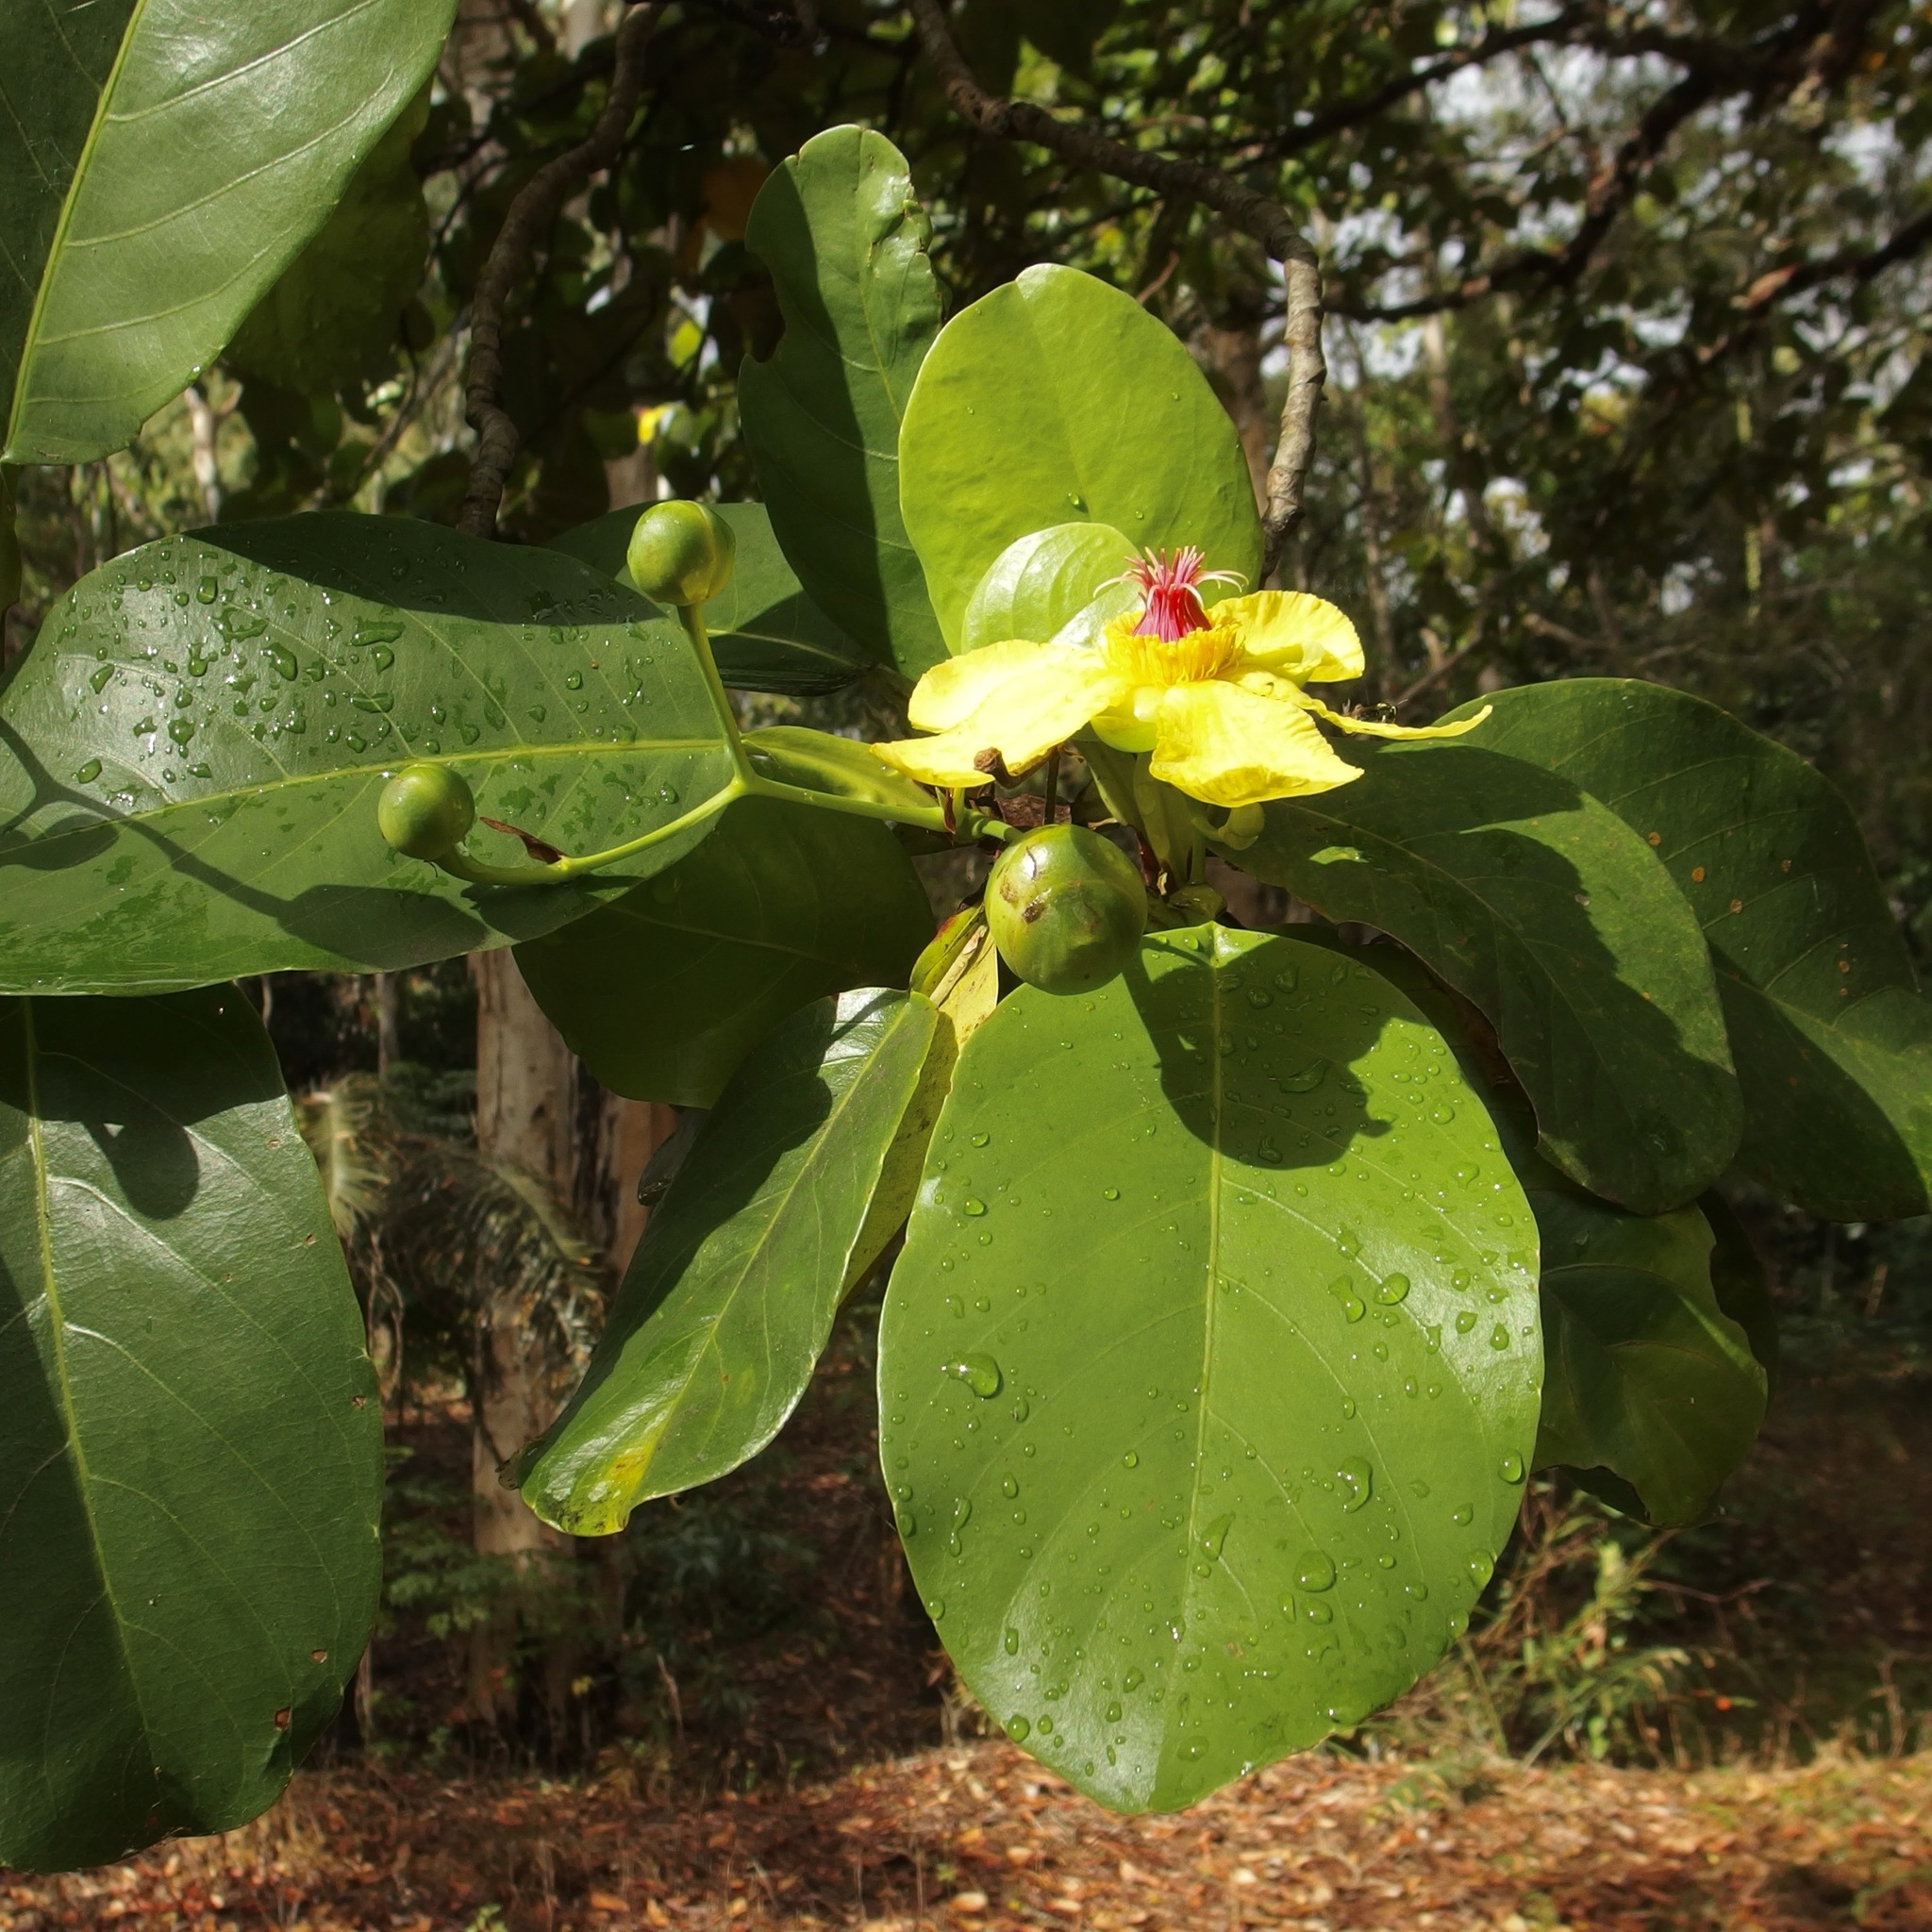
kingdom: Plantae
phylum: Tracheophyta
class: Magnoliopsida
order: Dilleniales
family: Dilleniaceae
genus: Dillenia
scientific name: Dillenia alata
